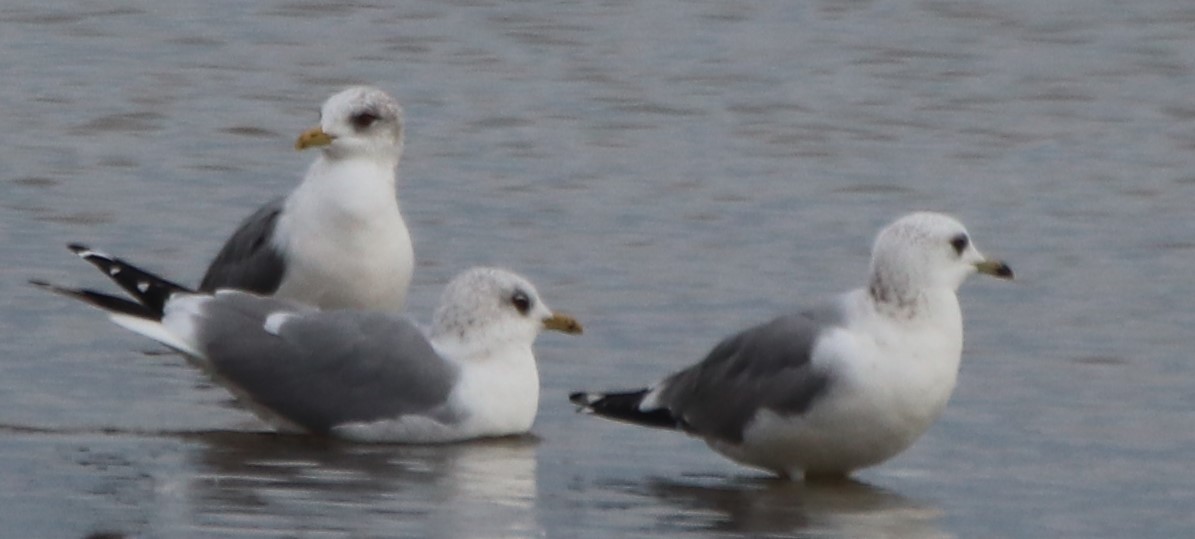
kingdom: Animalia
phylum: Chordata
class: Aves
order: Charadriiformes
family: Laridae
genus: Larus
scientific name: Larus canus
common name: Mew gull
